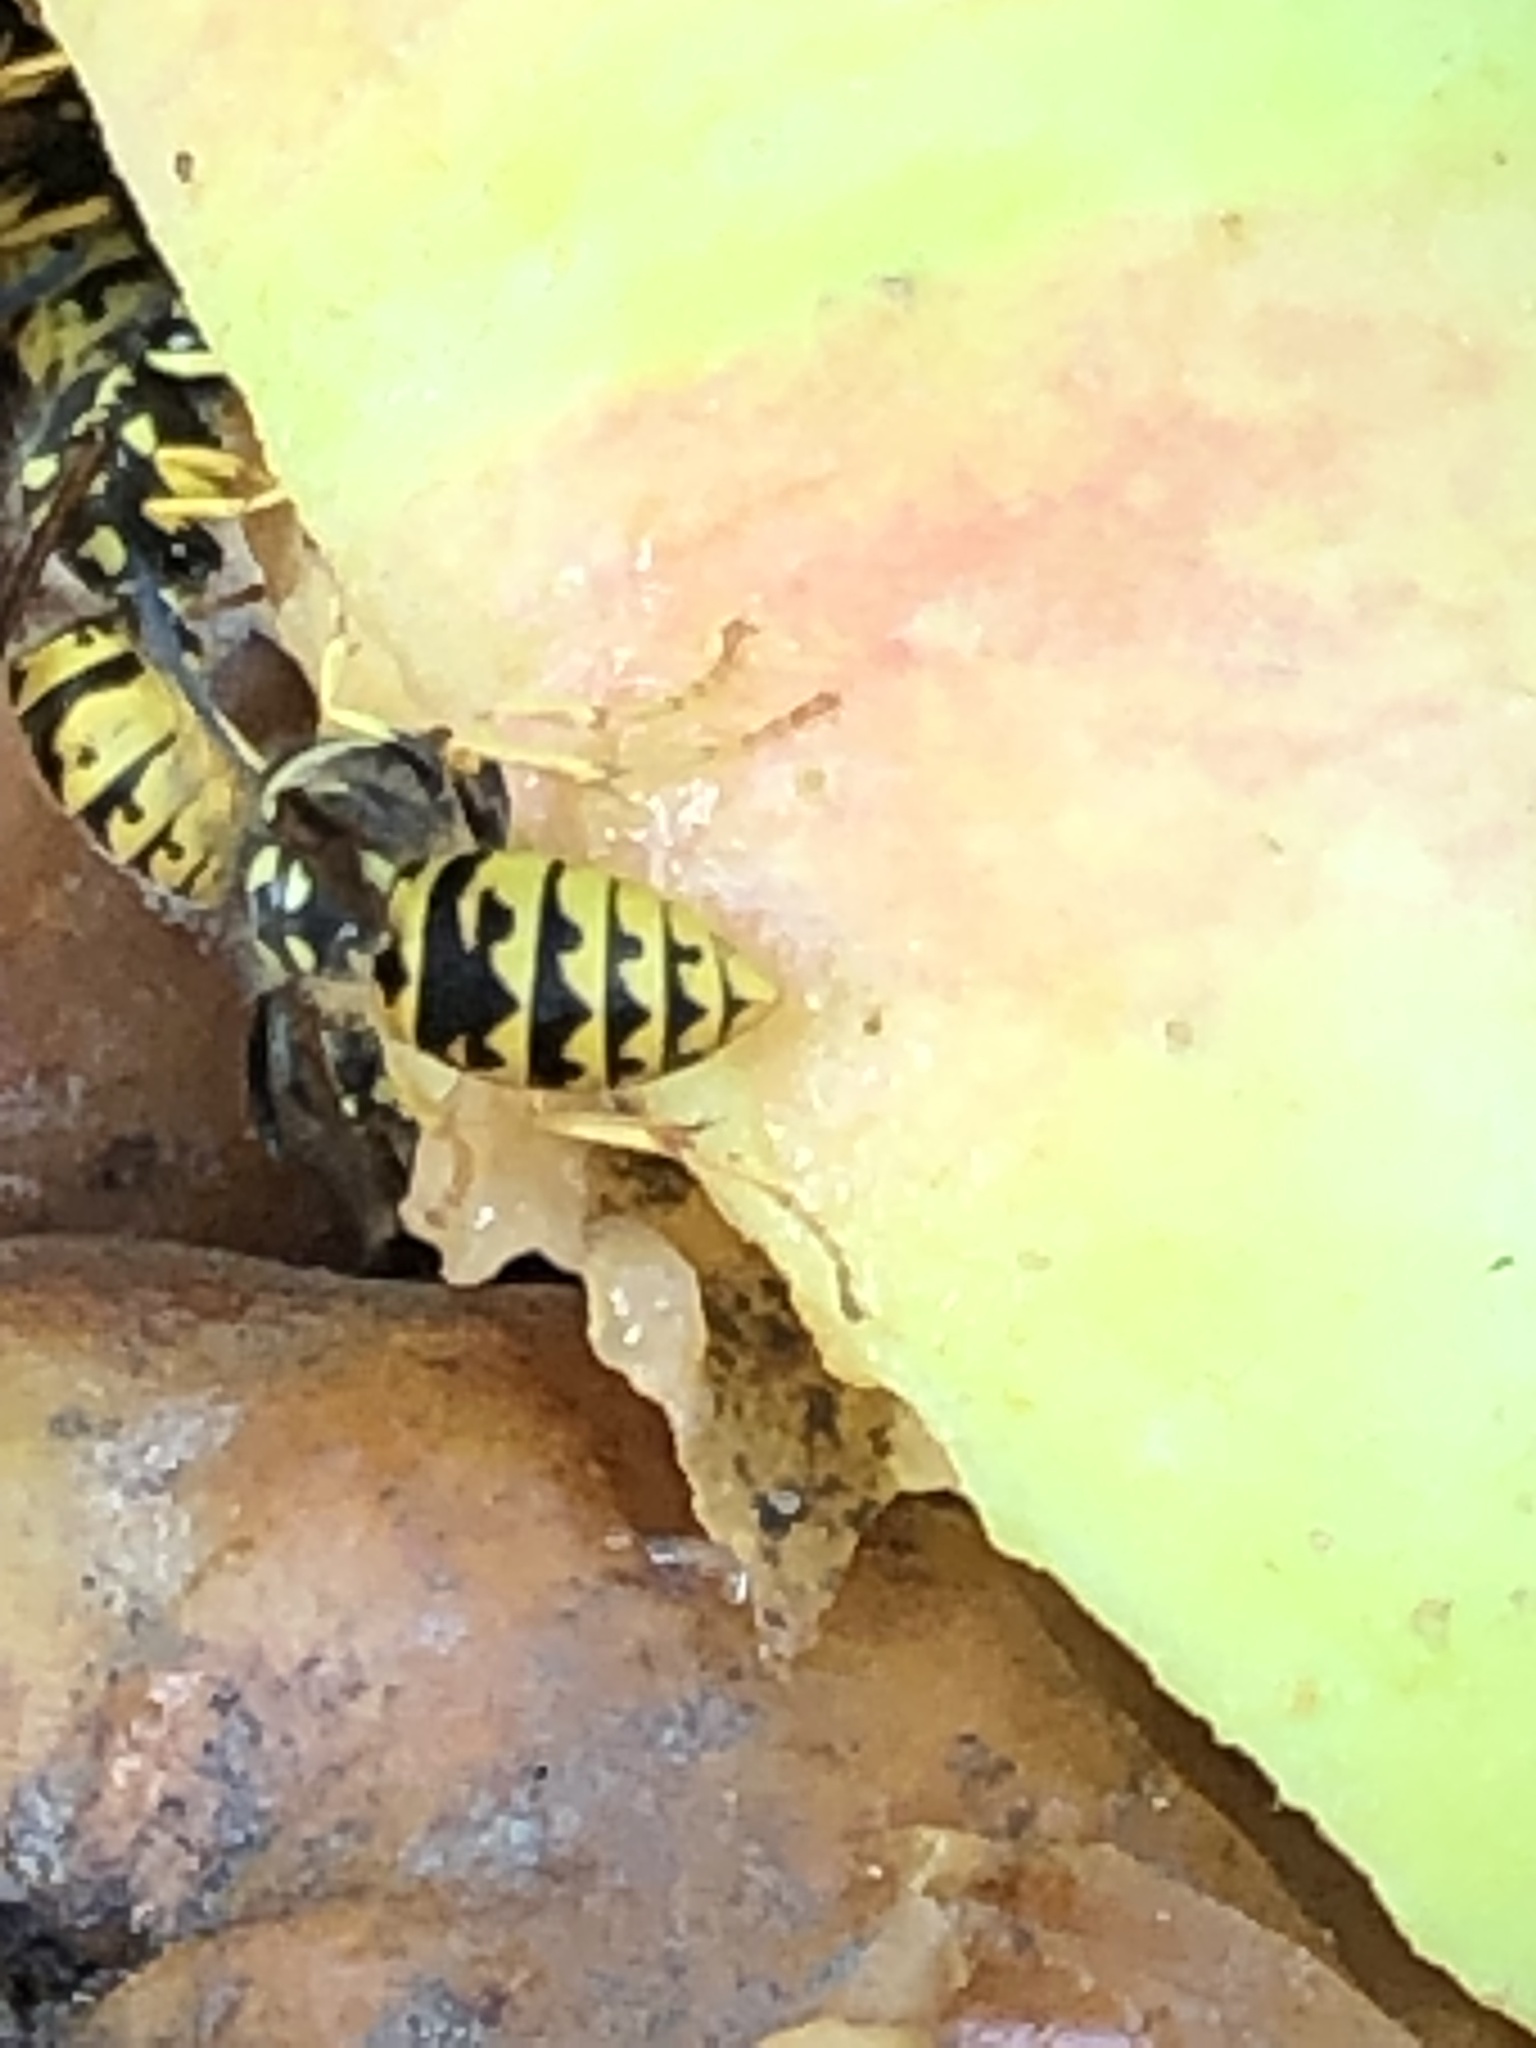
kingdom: Animalia
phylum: Arthropoda
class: Insecta
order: Hymenoptera
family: Vespidae
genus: Vespula
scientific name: Vespula germanica
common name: German wasp
